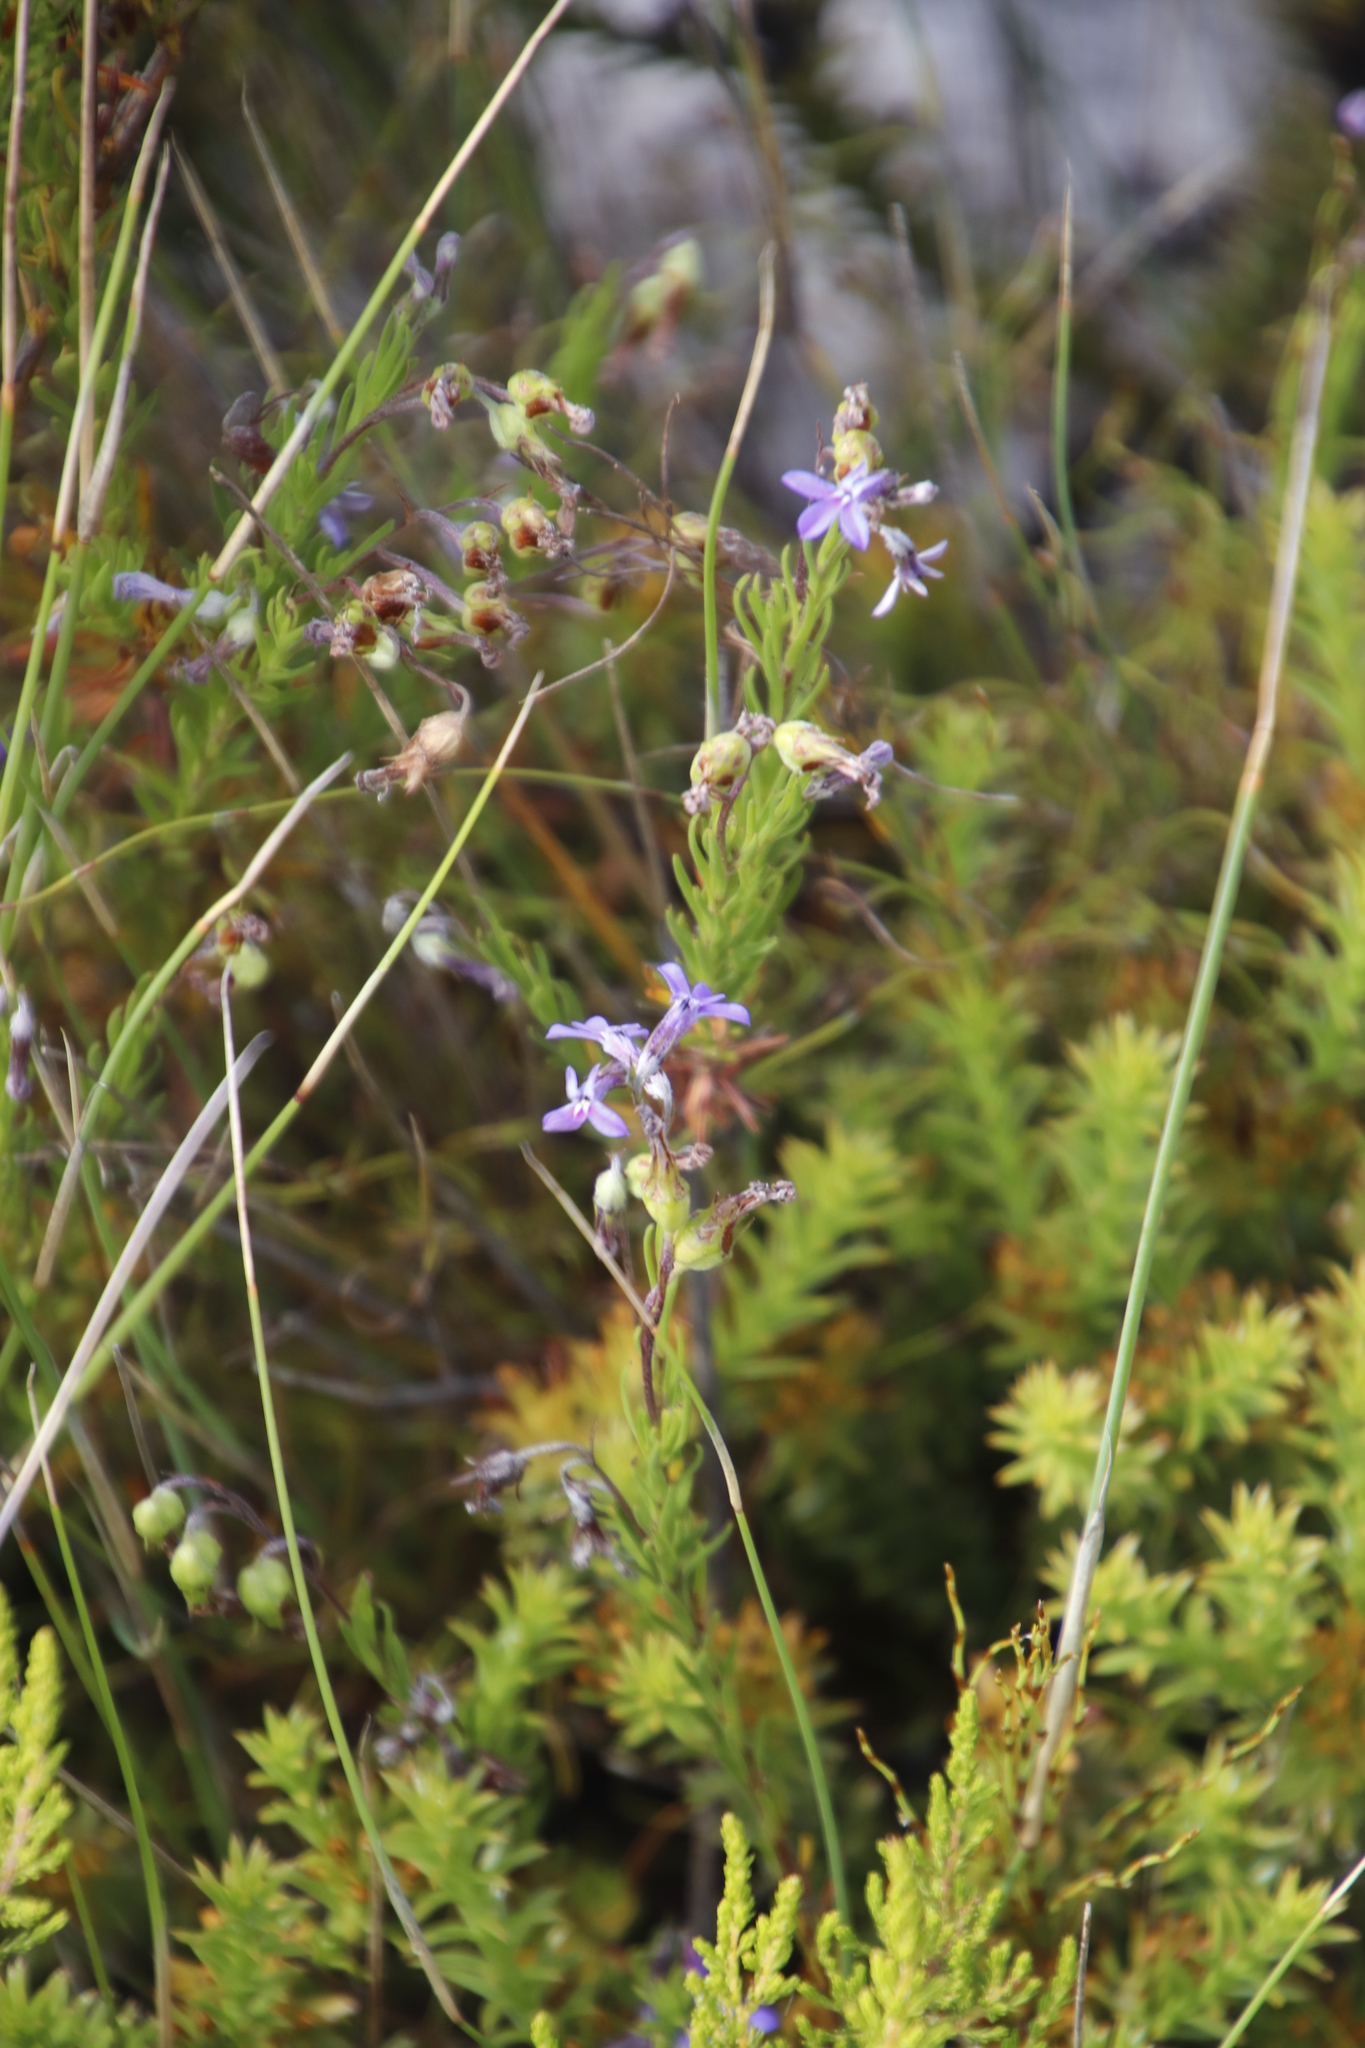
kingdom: Plantae
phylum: Tracheophyta
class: Magnoliopsida
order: Asterales
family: Campanulaceae
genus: Lobelia
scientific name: Lobelia pinifolia
